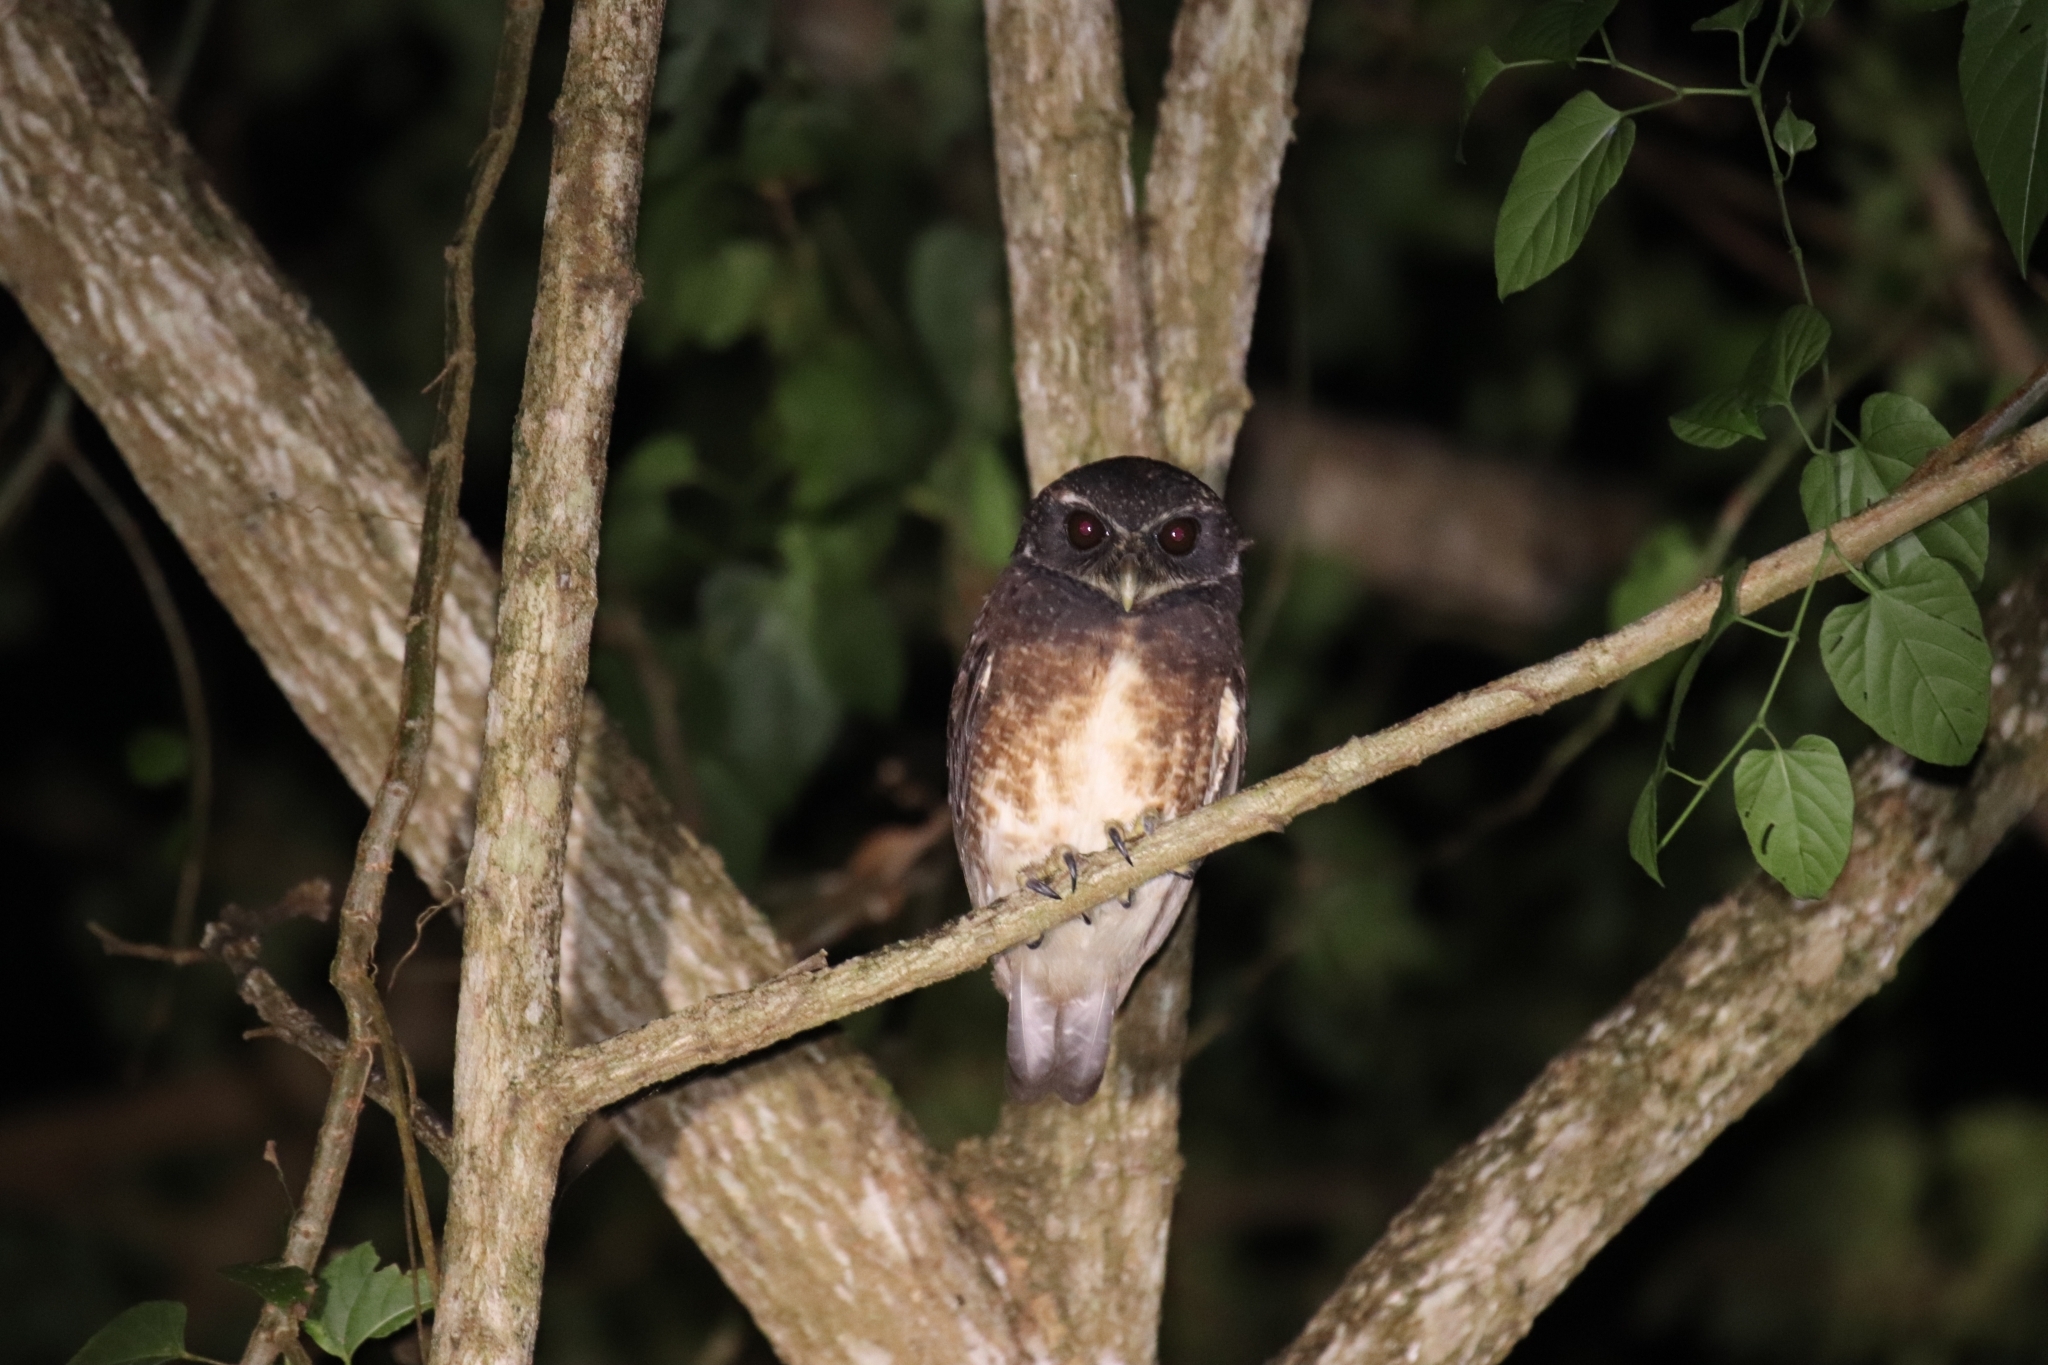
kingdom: Animalia
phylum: Chordata
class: Aves
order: Strigiformes
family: Strigidae
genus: Ninox
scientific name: Ninox punctulata
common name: Speckled boobook
